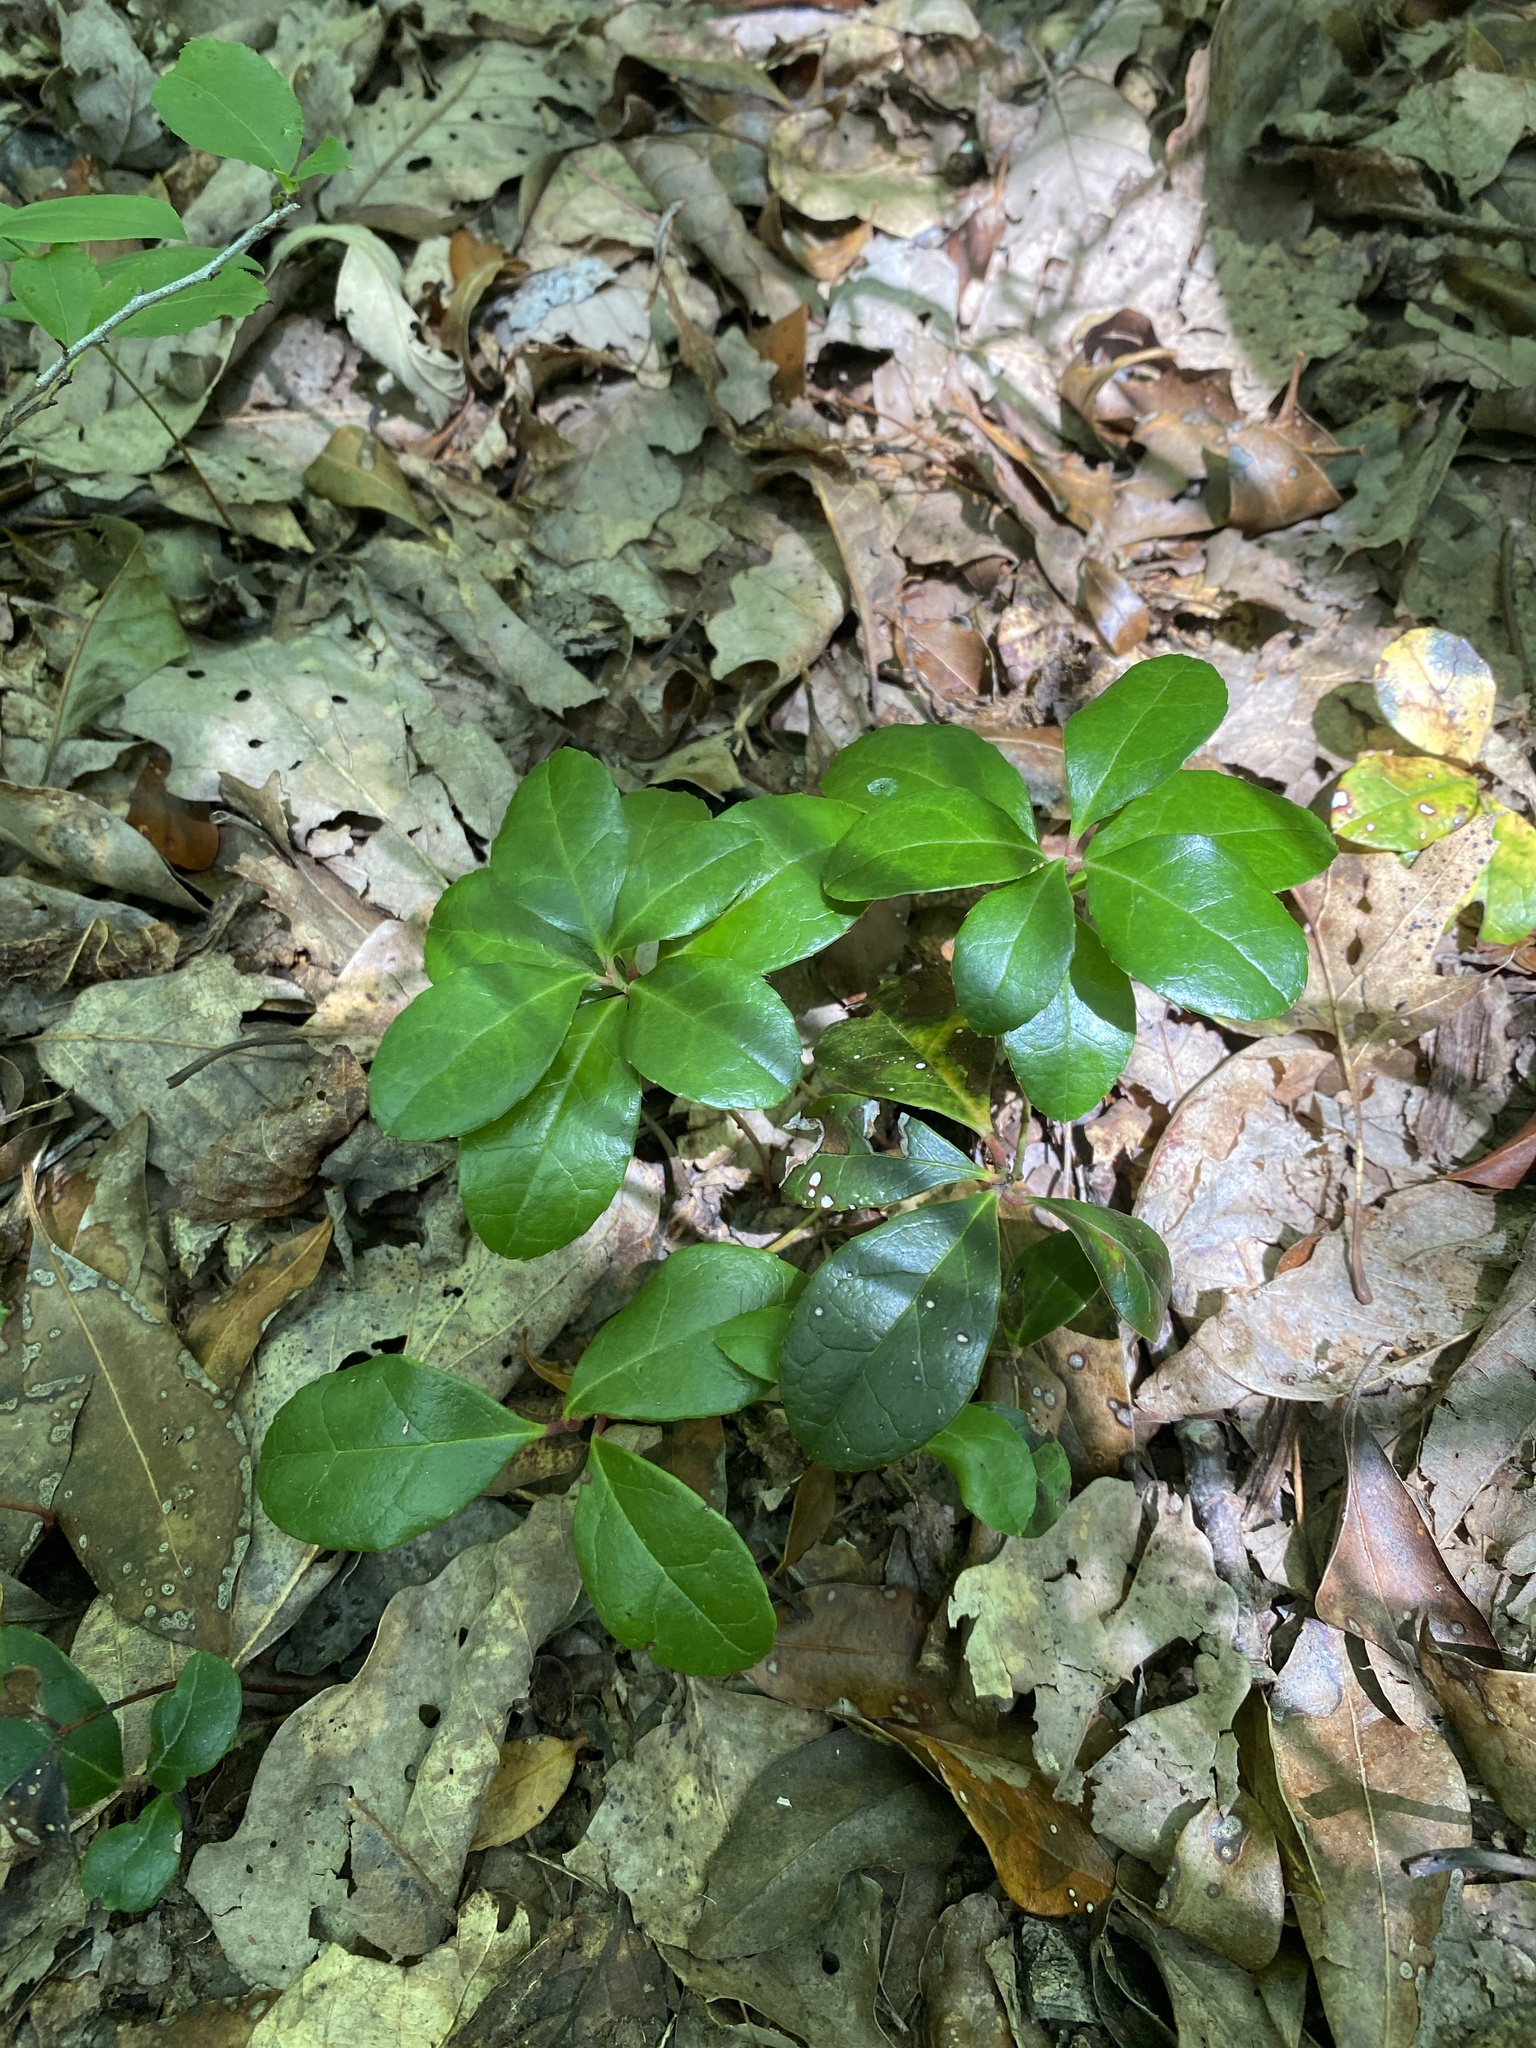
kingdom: Plantae
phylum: Tracheophyta
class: Magnoliopsida
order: Ericales
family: Ericaceae
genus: Gaultheria
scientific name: Gaultheria procumbens
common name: Checkerberry
